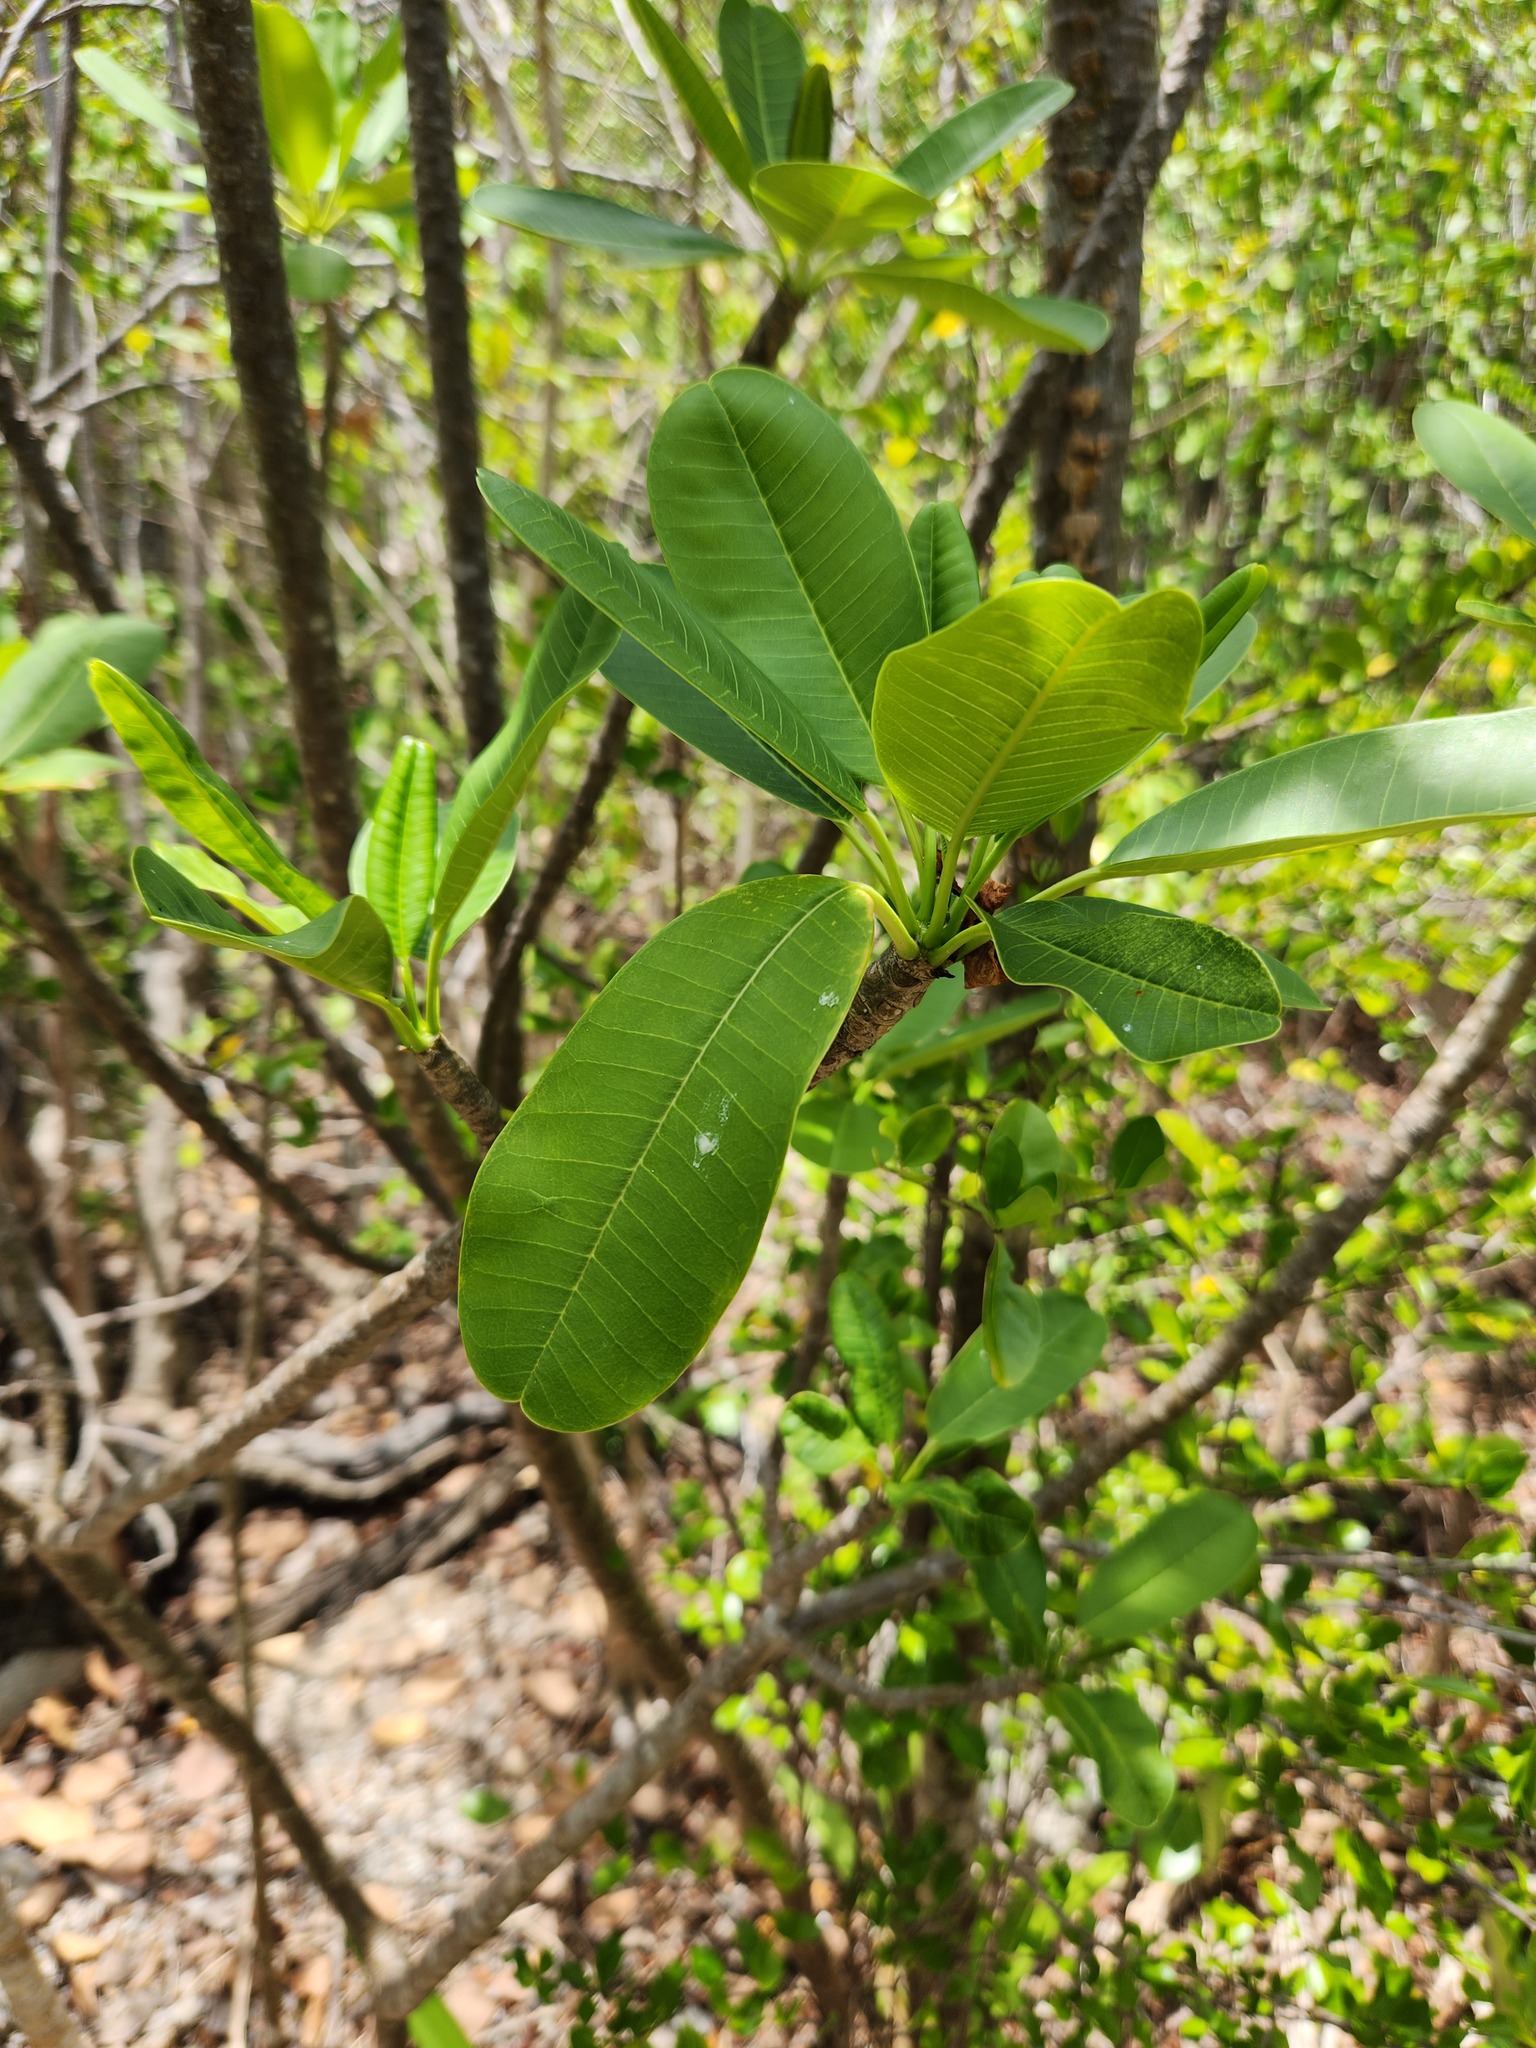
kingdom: Plantae
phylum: Tracheophyta
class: Magnoliopsida
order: Gentianales
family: Apocynaceae
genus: Plumeria
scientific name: Plumeria obtusa
